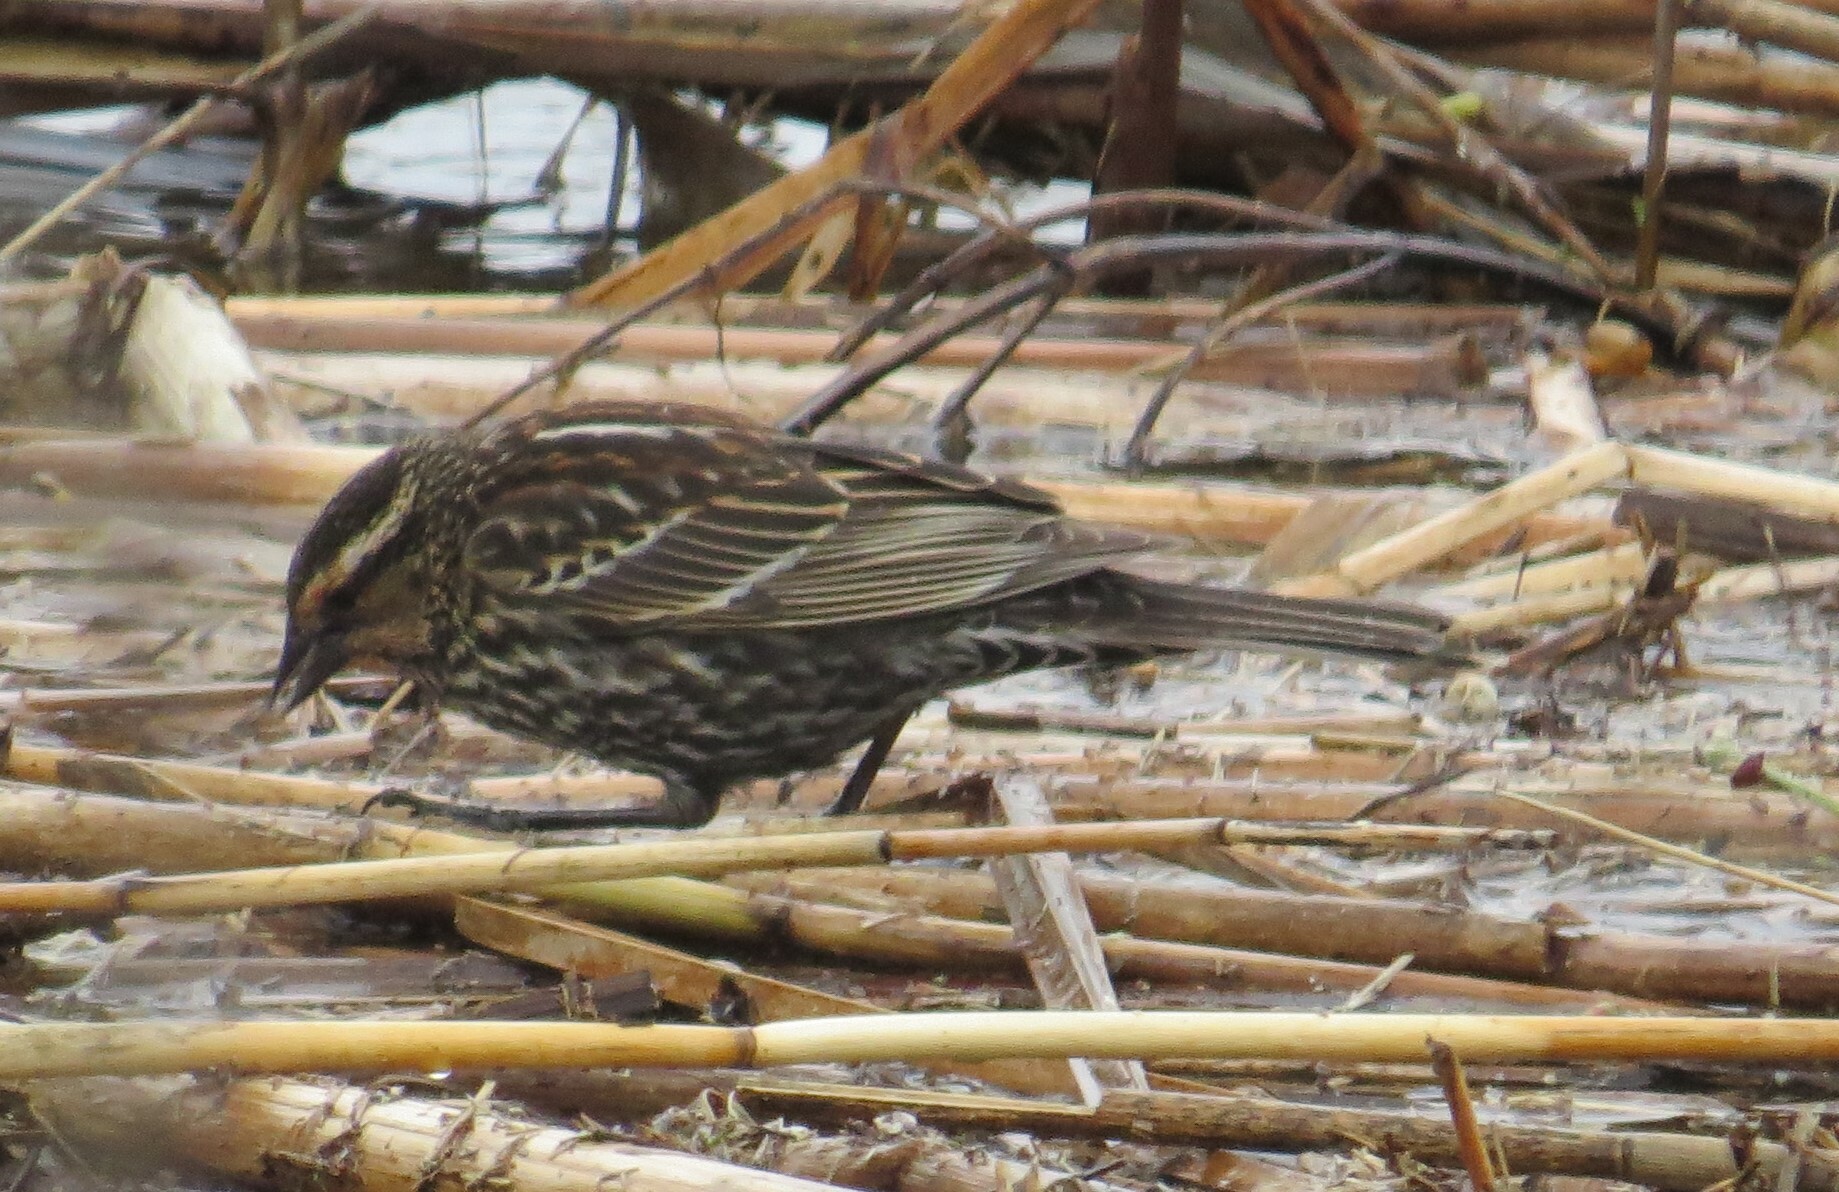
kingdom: Animalia
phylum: Chordata
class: Aves
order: Passeriformes
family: Icteridae
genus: Agelaius
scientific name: Agelaius phoeniceus
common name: Red-winged blackbird
